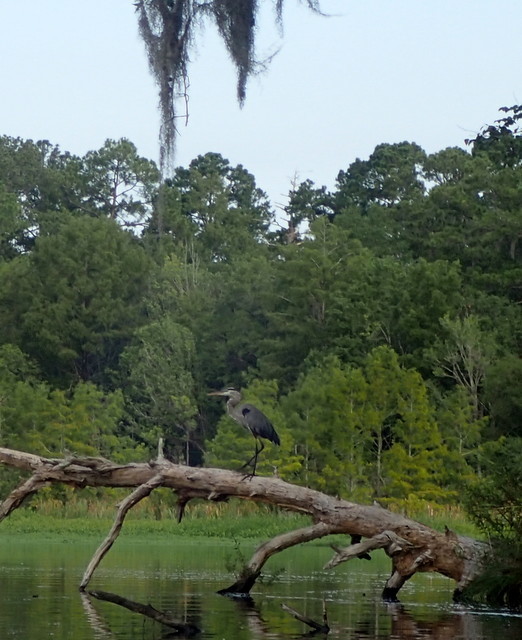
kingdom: Animalia
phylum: Chordata
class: Aves
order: Pelecaniformes
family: Ardeidae
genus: Ardea
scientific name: Ardea herodias
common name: Great blue heron
